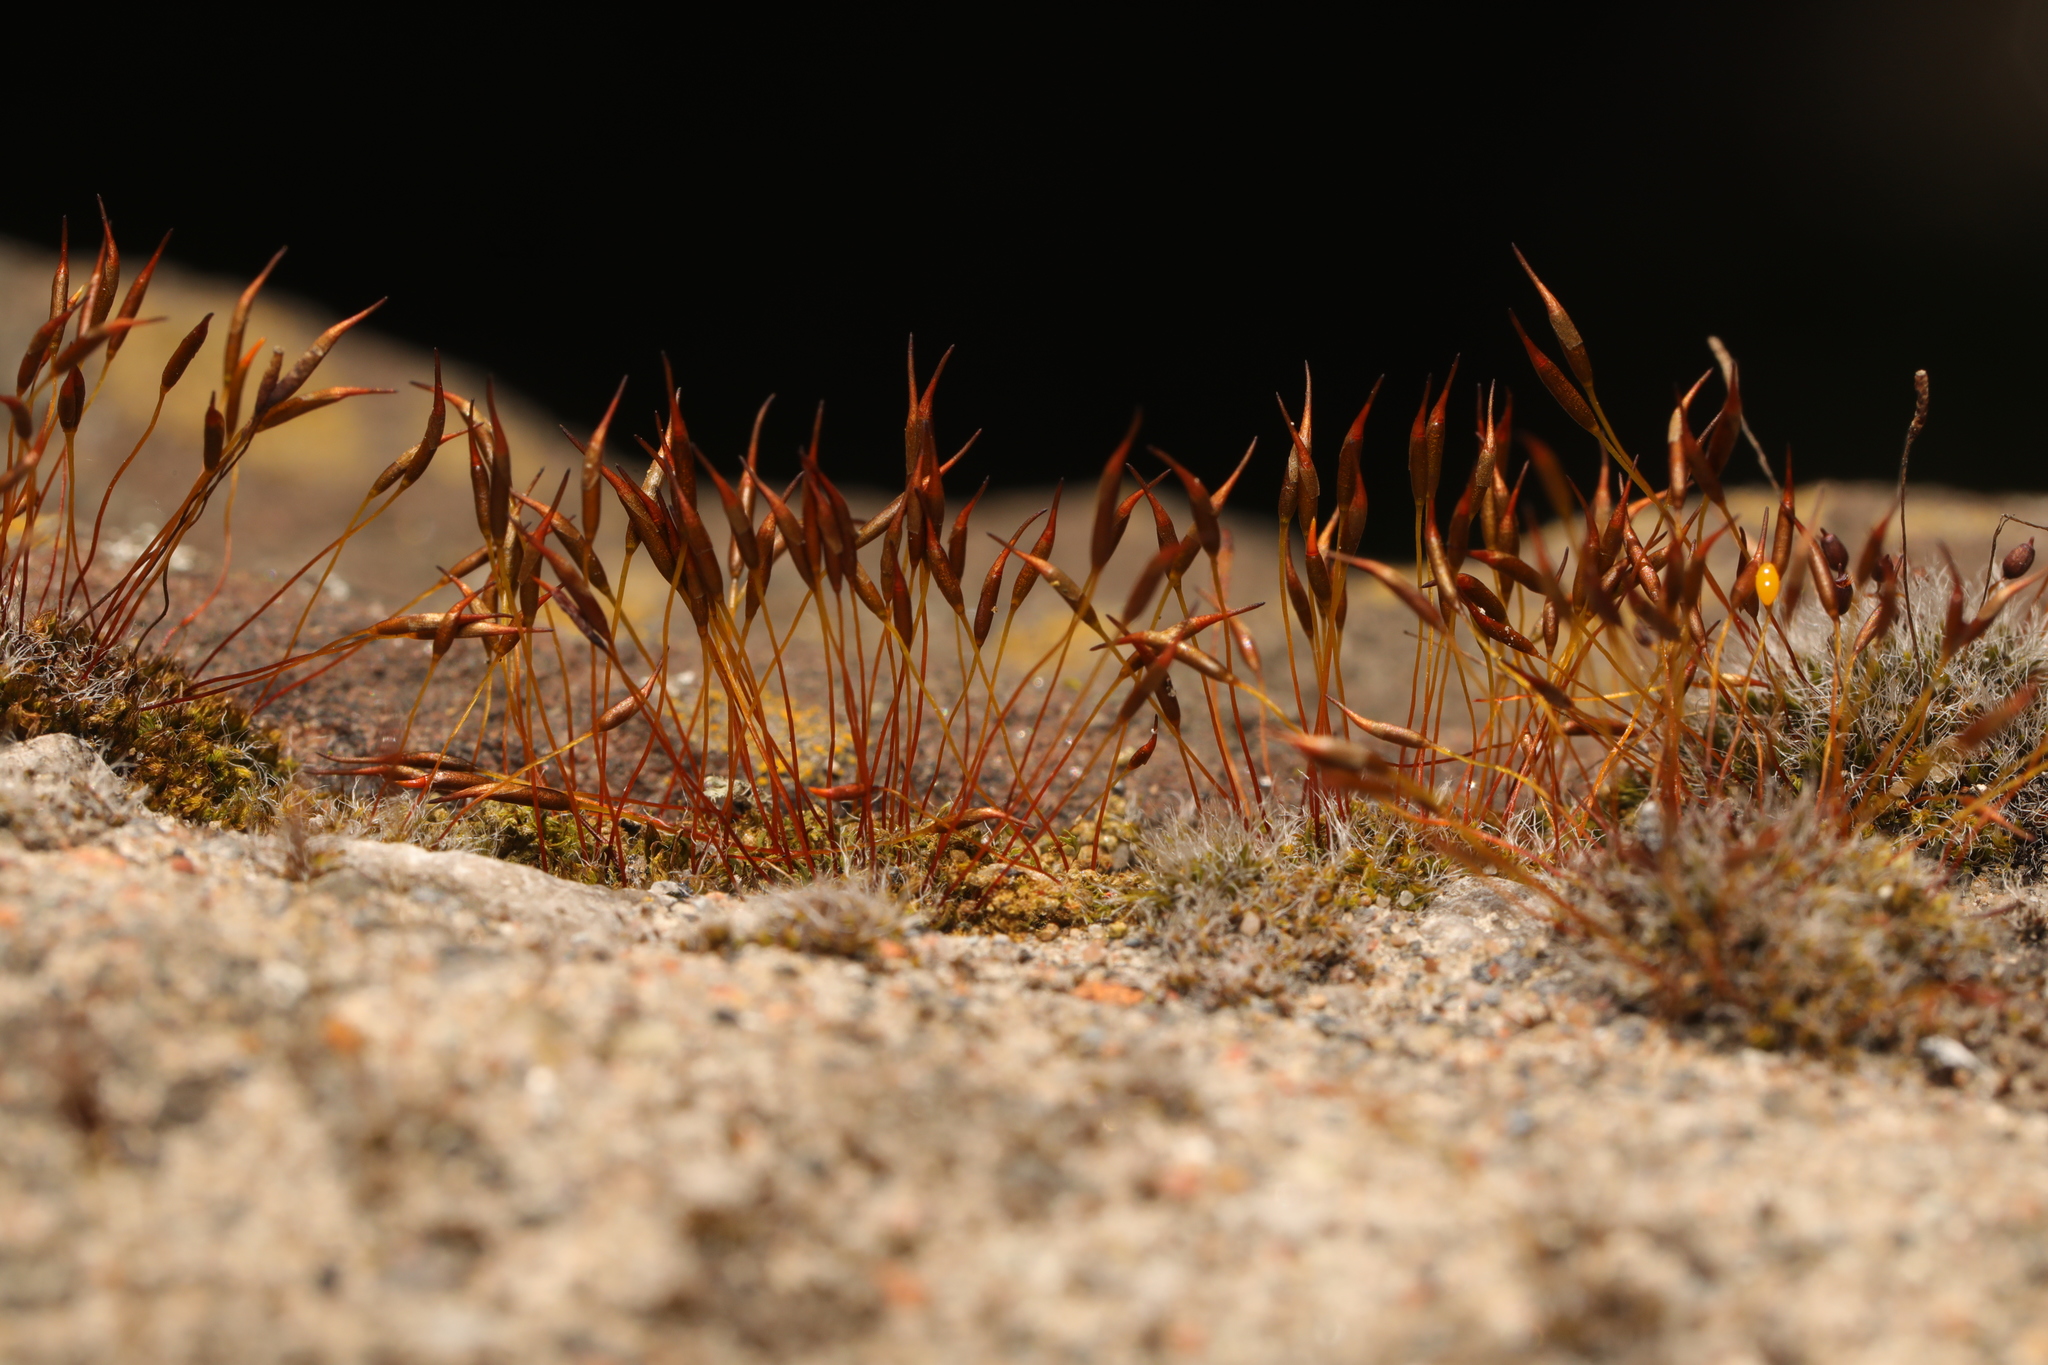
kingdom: Plantae
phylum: Bryophyta
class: Bryopsida
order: Pottiales
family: Pottiaceae
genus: Tortula
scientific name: Tortula muralis
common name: Wall screw-moss
